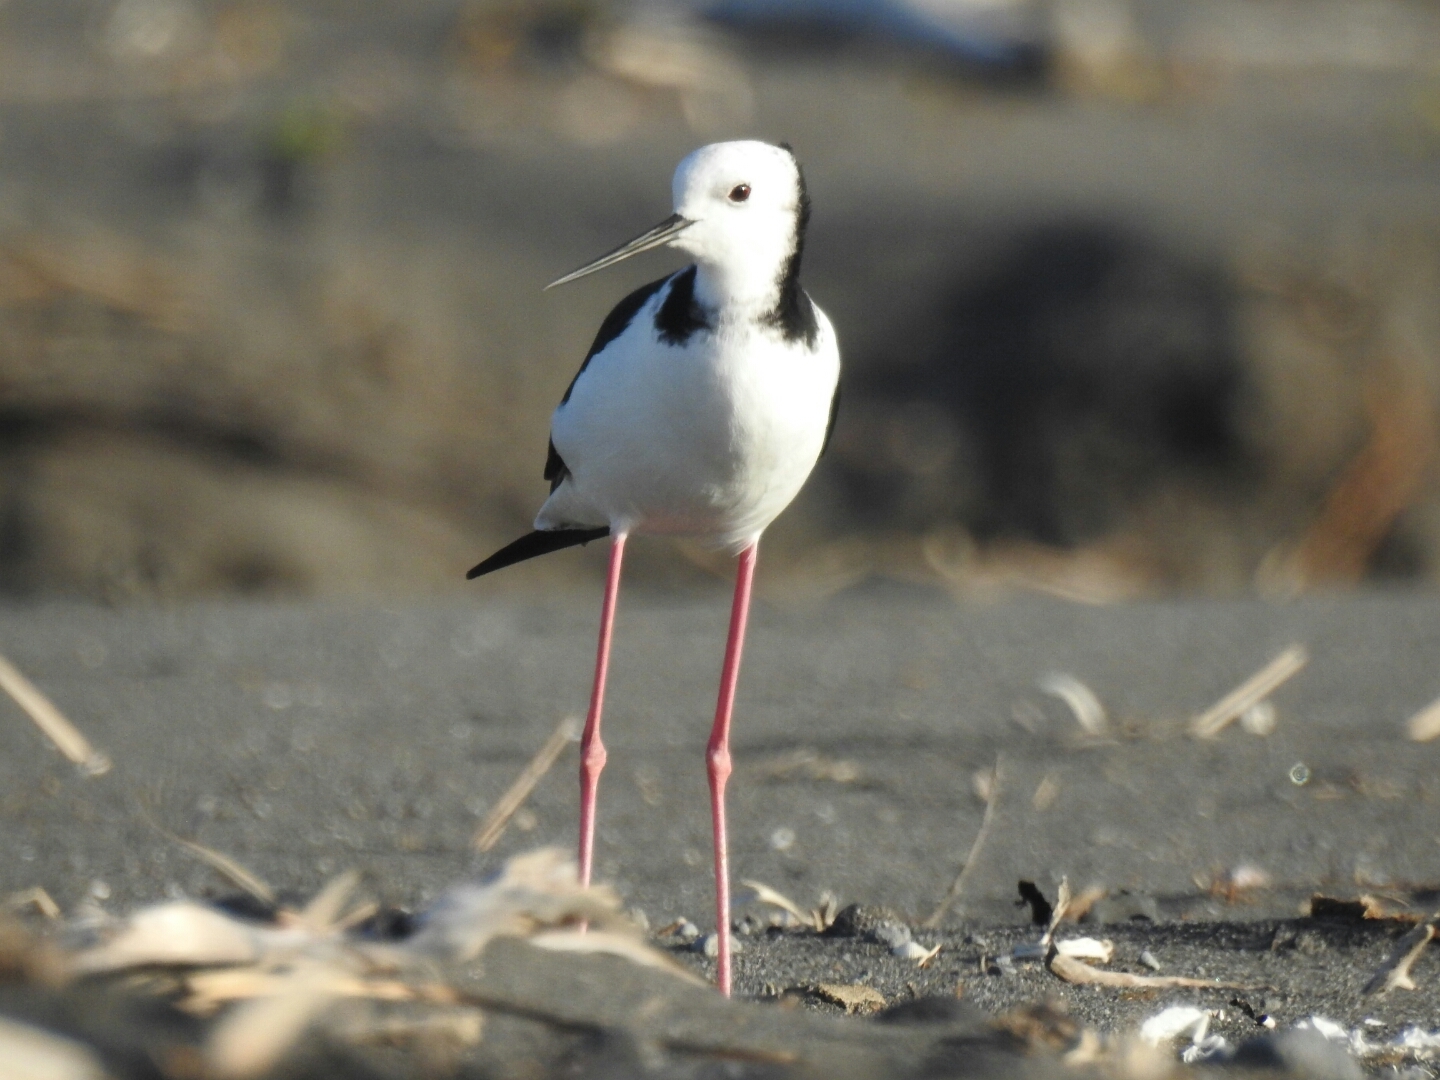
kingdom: Animalia
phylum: Chordata
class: Aves
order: Charadriiformes
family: Recurvirostridae
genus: Himantopus
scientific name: Himantopus leucocephalus
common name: White-headed stilt
